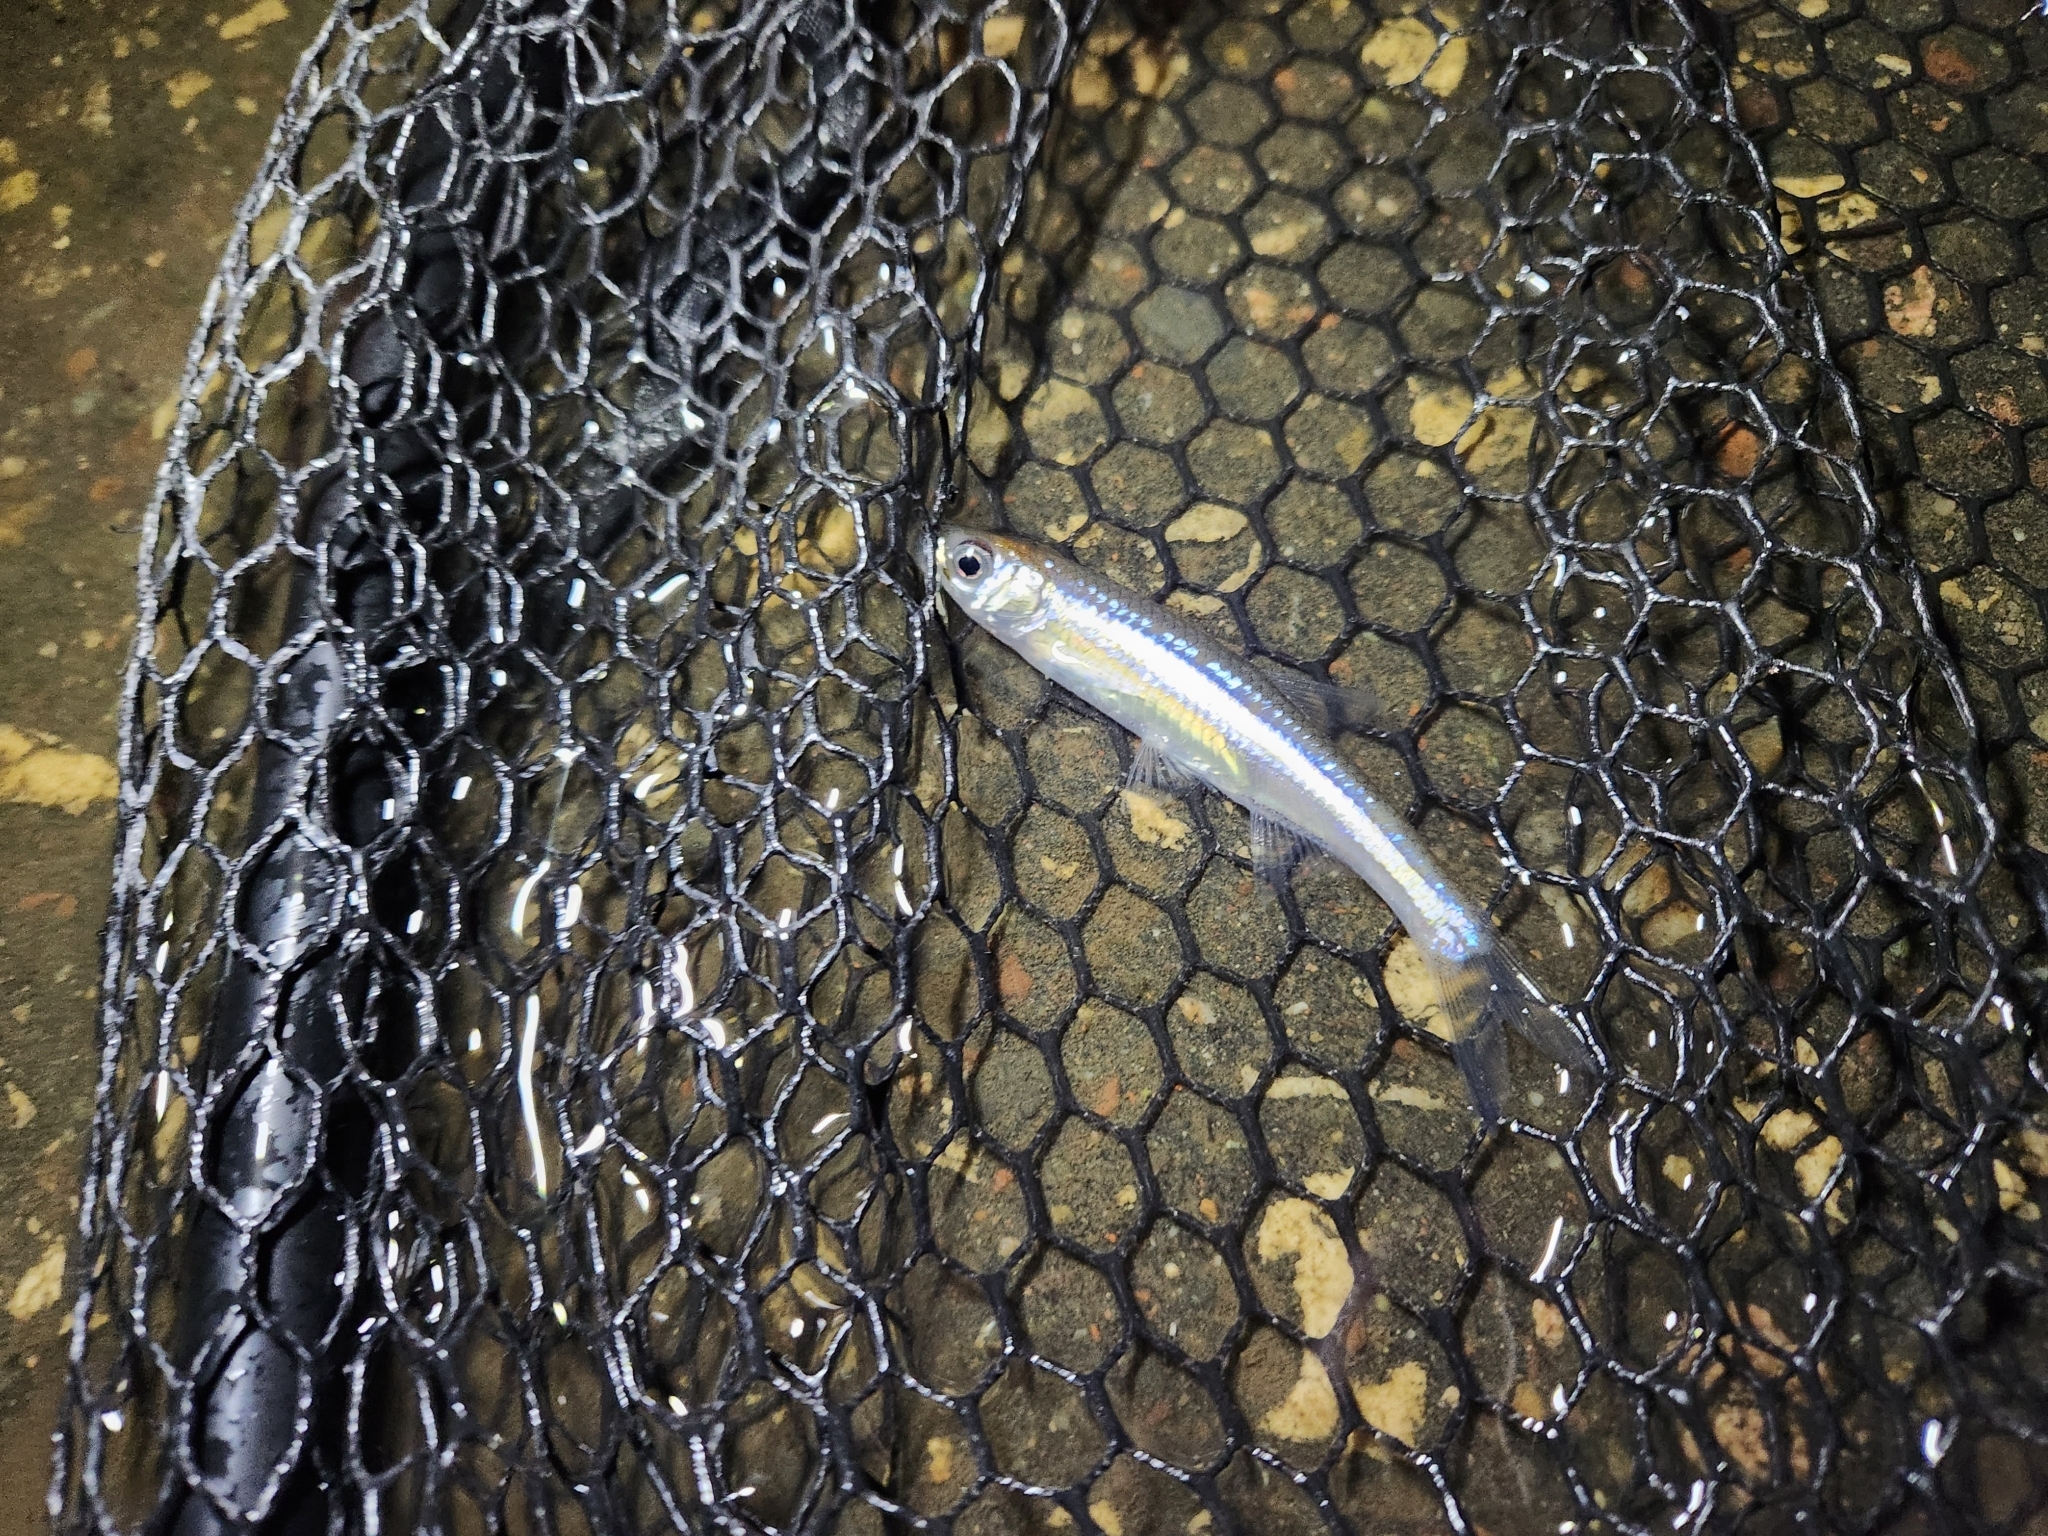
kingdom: Animalia
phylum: Chordata
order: Cypriniformes
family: Cyprinidae
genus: Notropis
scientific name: Notropis atherinoides
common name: Emerald shiner
